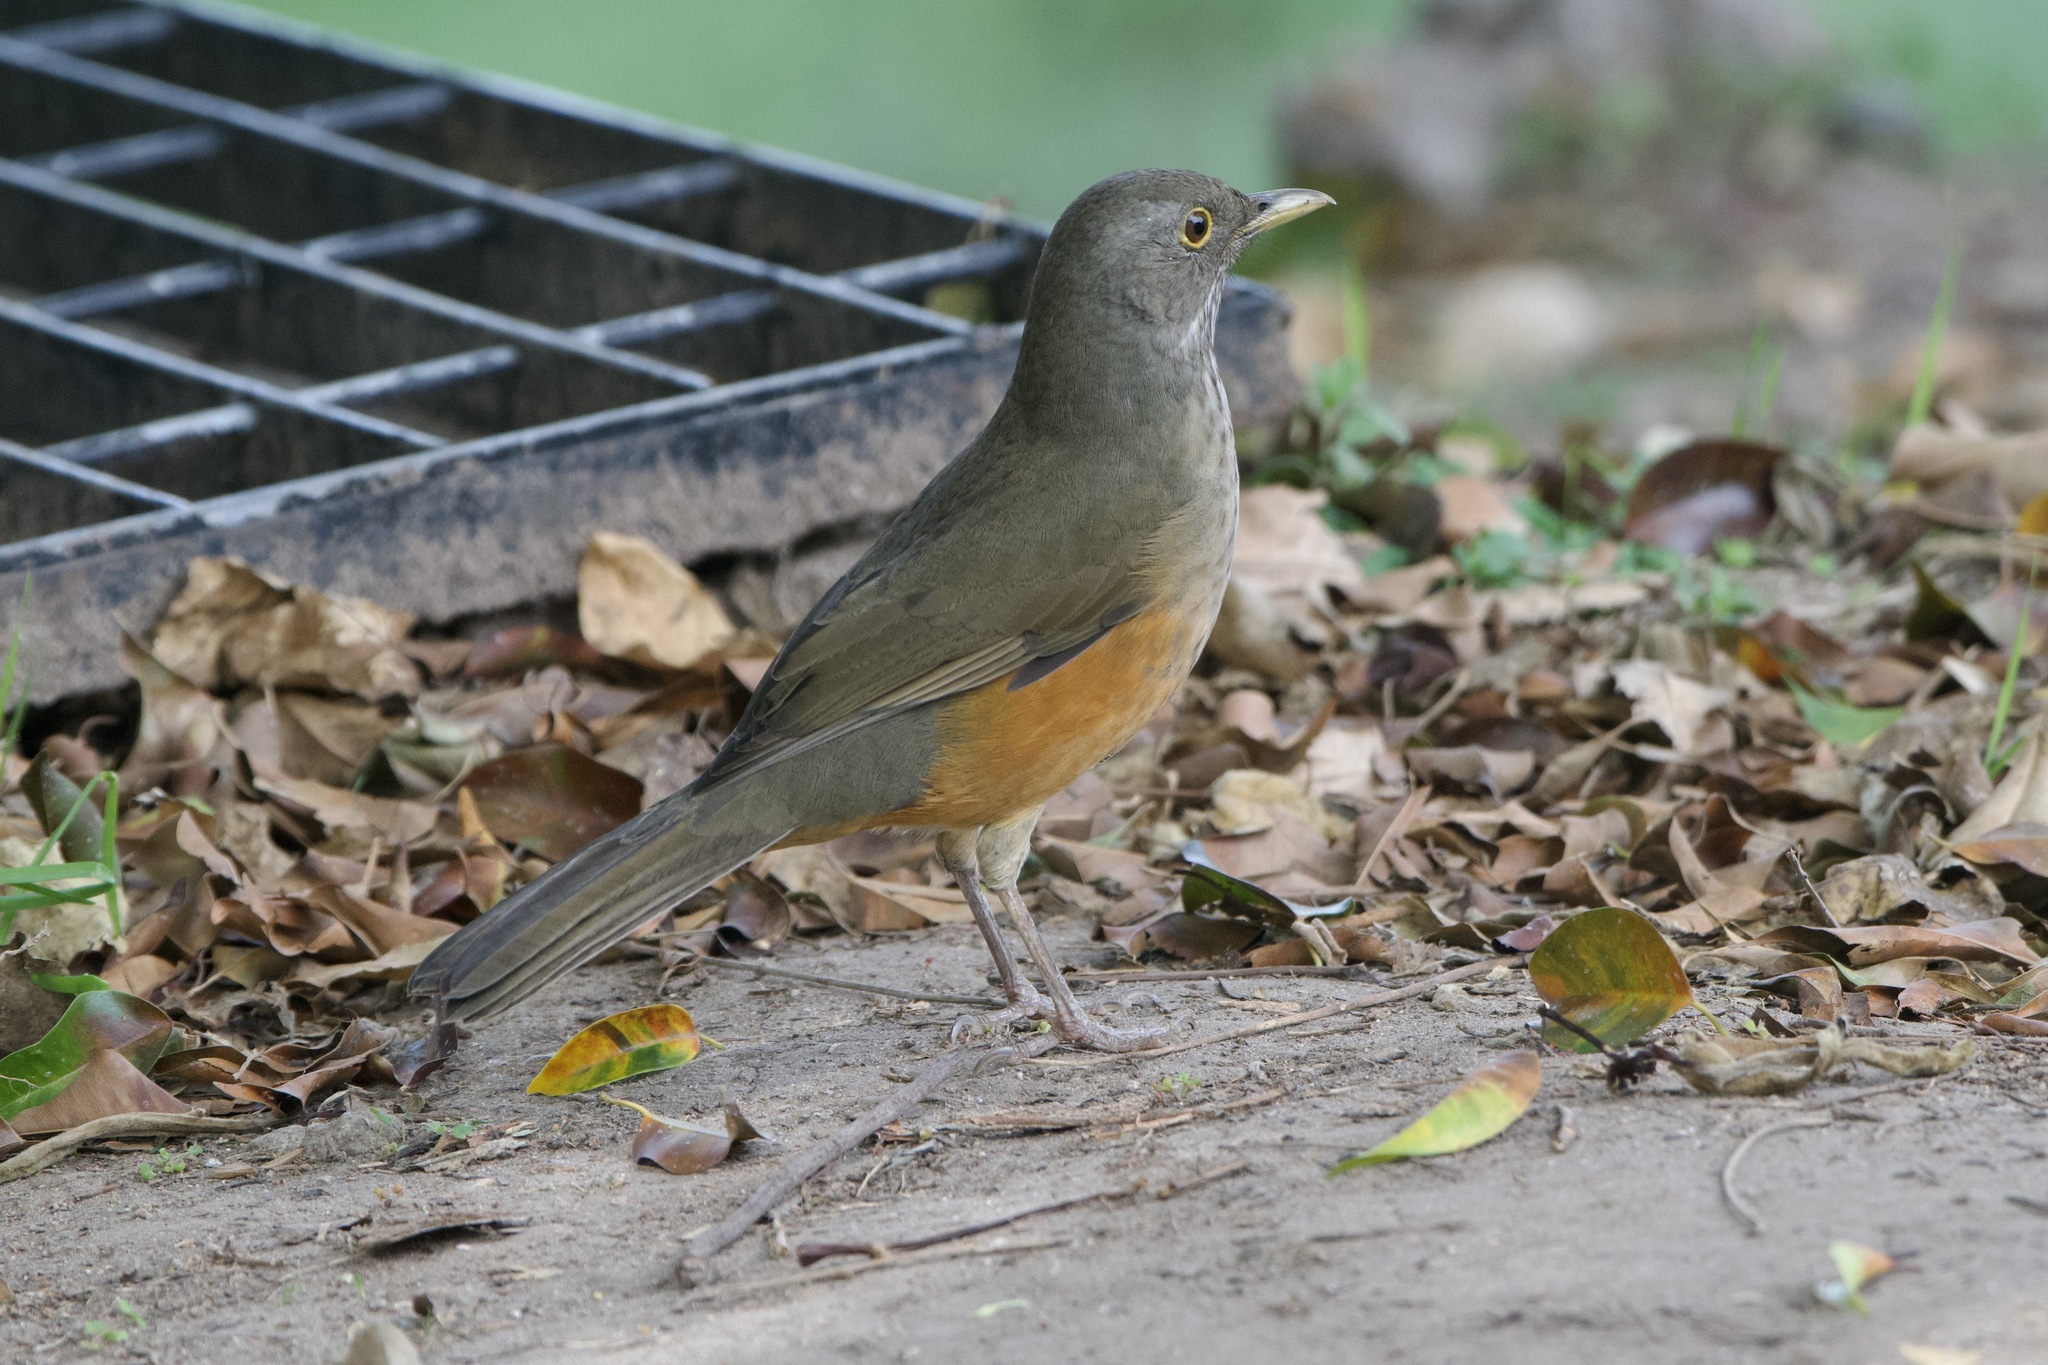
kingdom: Animalia
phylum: Chordata
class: Aves
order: Passeriformes
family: Turdidae
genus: Turdus
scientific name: Turdus rufiventris
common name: Rufous-bellied thrush
